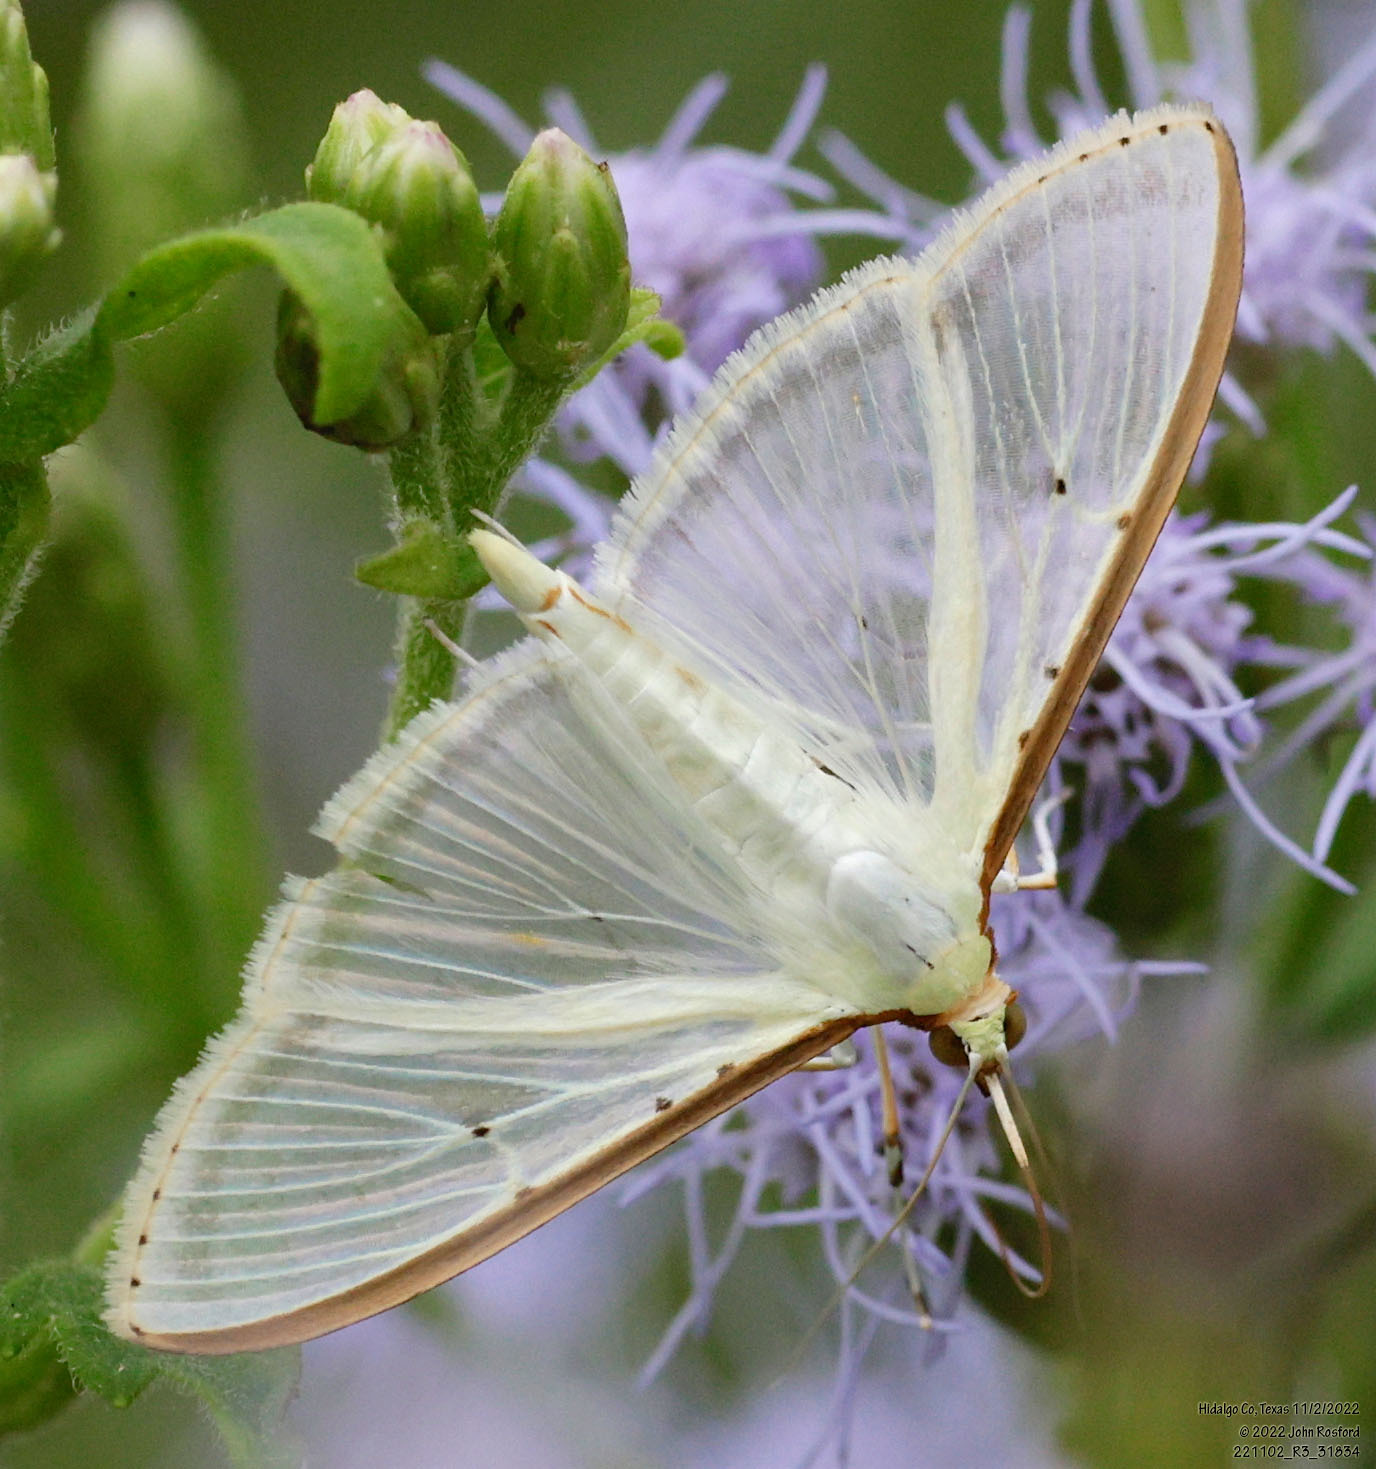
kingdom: Animalia
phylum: Arthropoda
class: Insecta
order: Lepidoptera
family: Crambidae
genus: Palpita
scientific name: Palpita quadristigmalis
